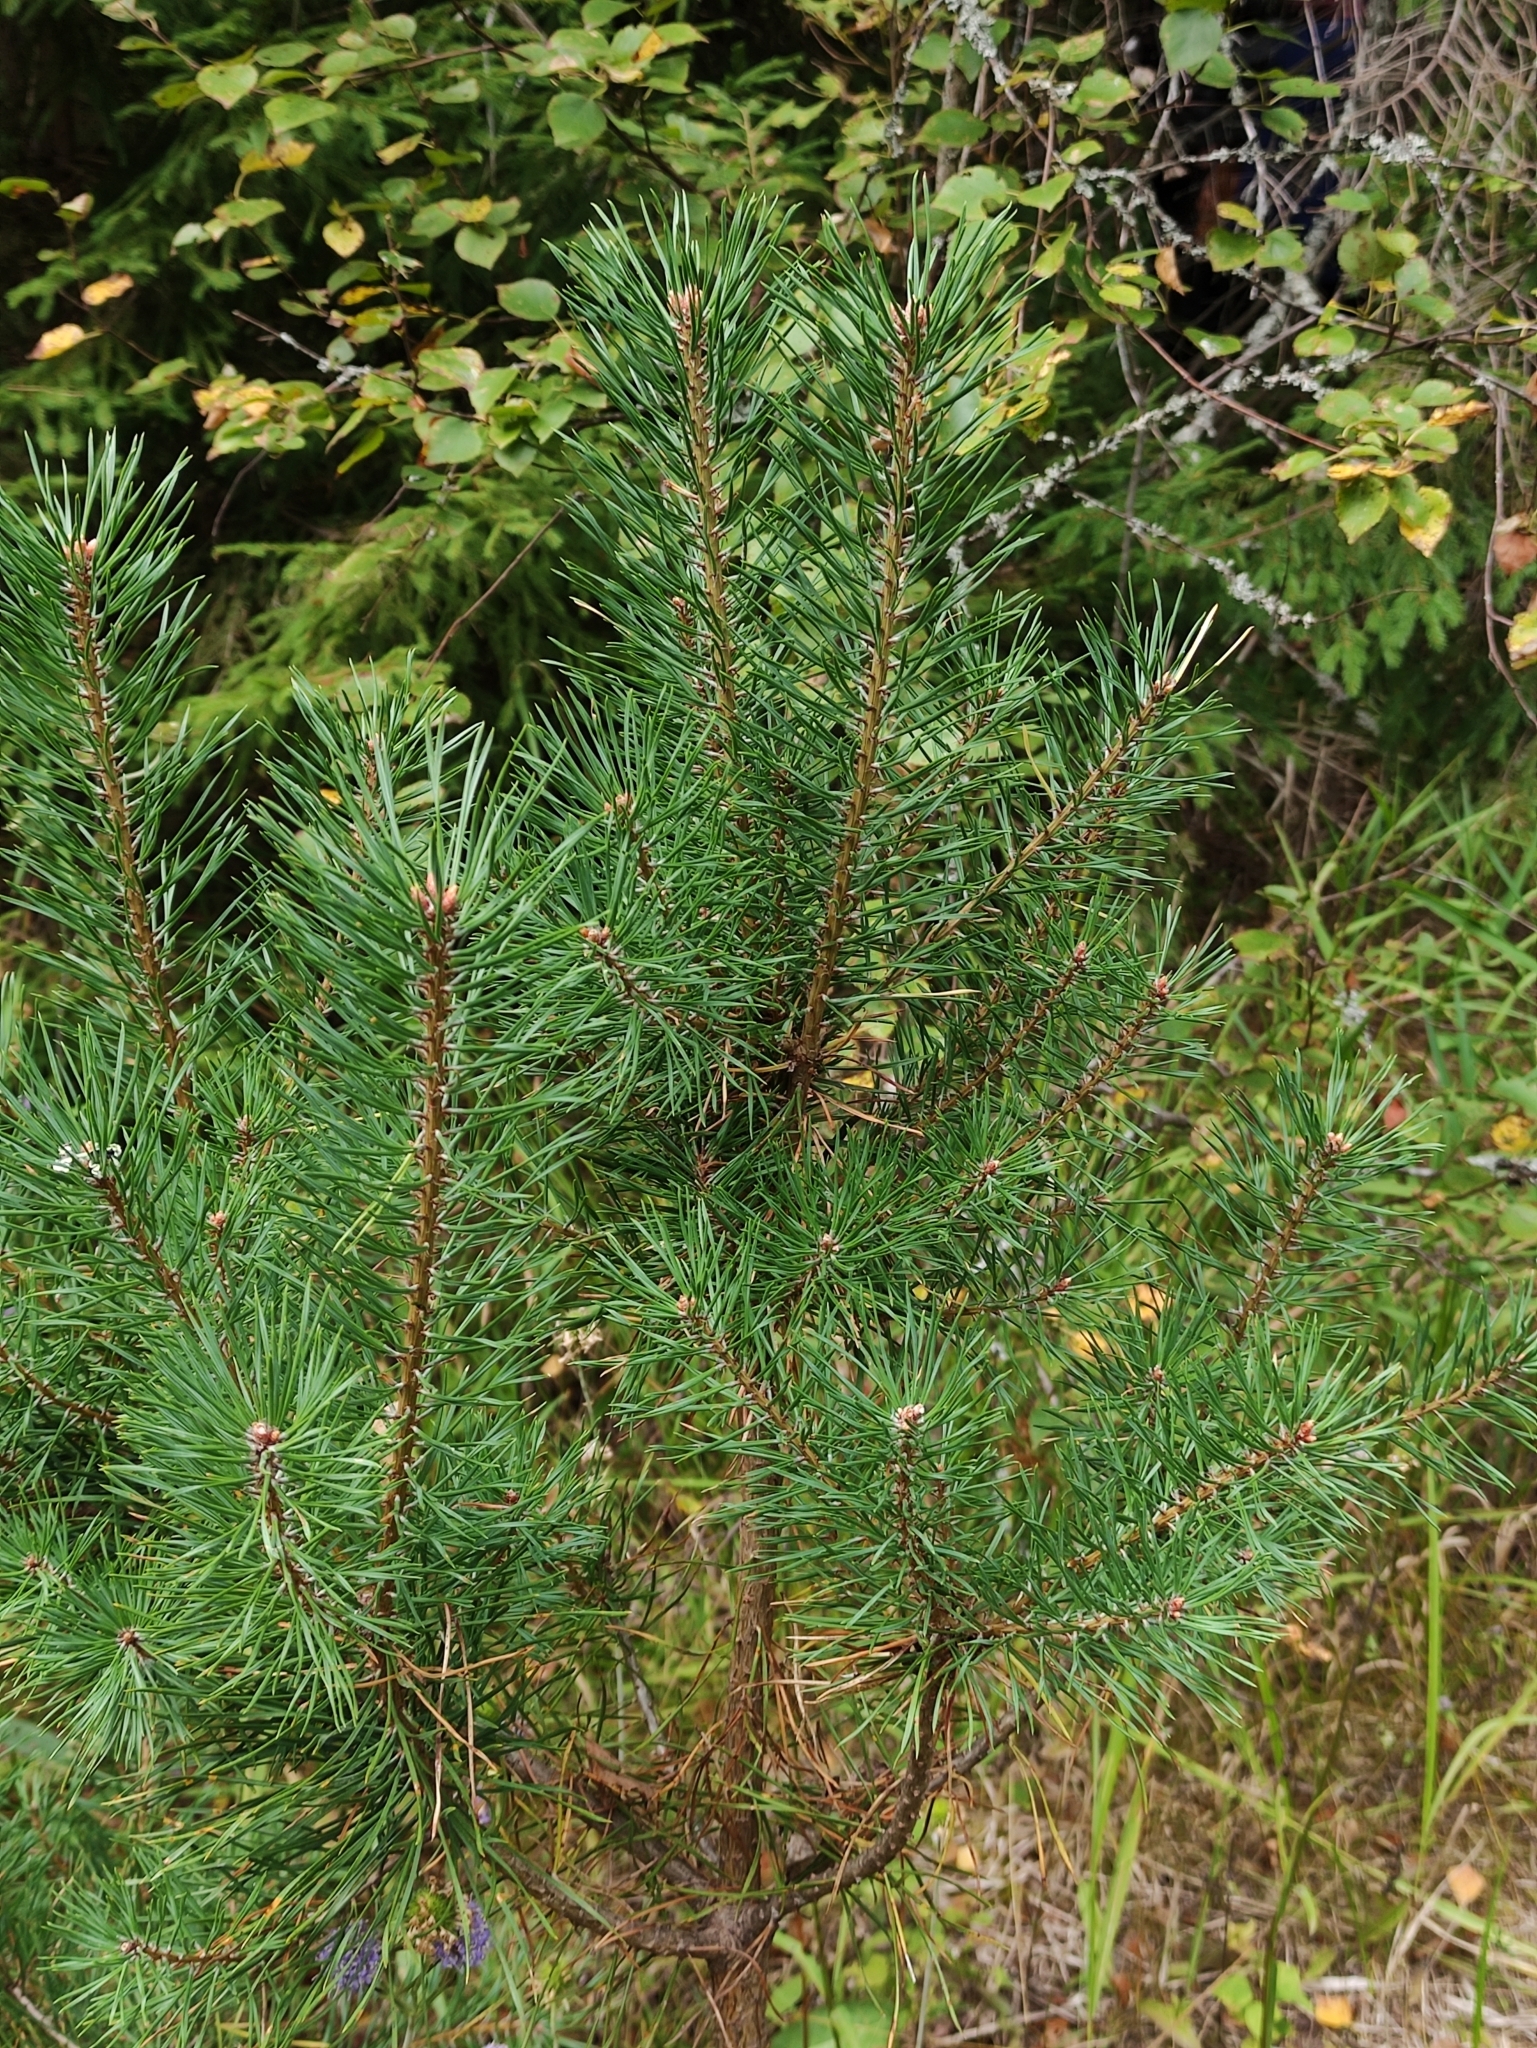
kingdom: Plantae
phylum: Tracheophyta
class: Pinopsida
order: Pinales
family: Pinaceae
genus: Pinus
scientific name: Pinus sylvestris
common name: Scots pine
